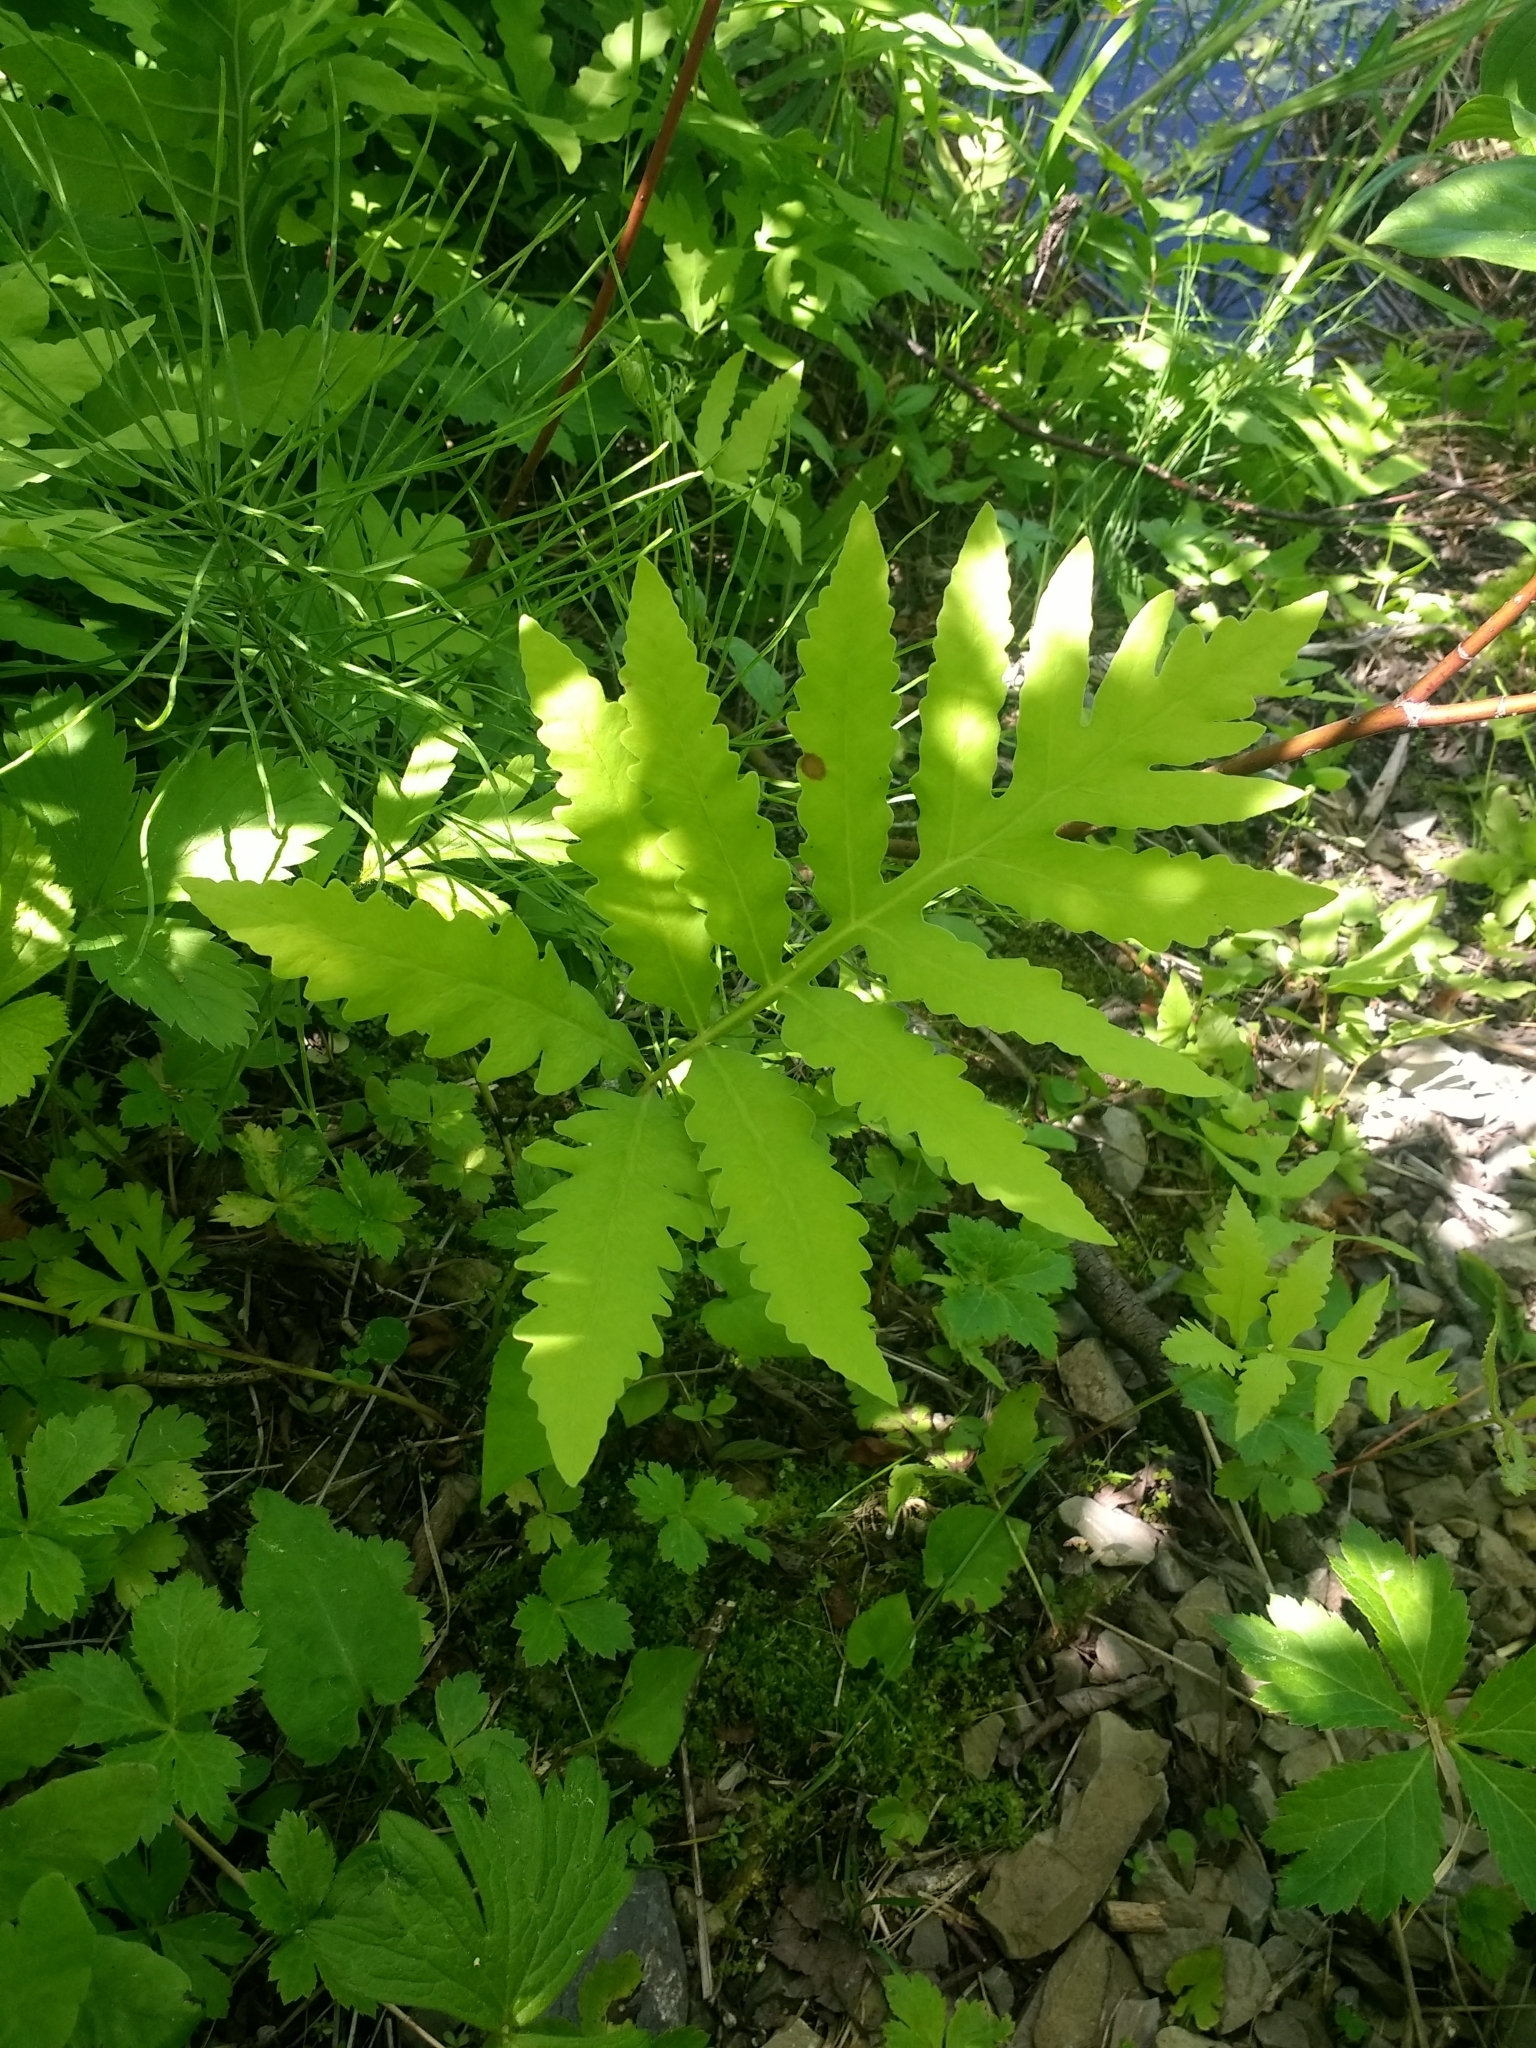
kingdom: Plantae
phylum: Tracheophyta
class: Polypodiopsida
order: Polypodiales
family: Onocleaceae
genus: Onoclea
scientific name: Onoclea sensibilis
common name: Sensitive fern
